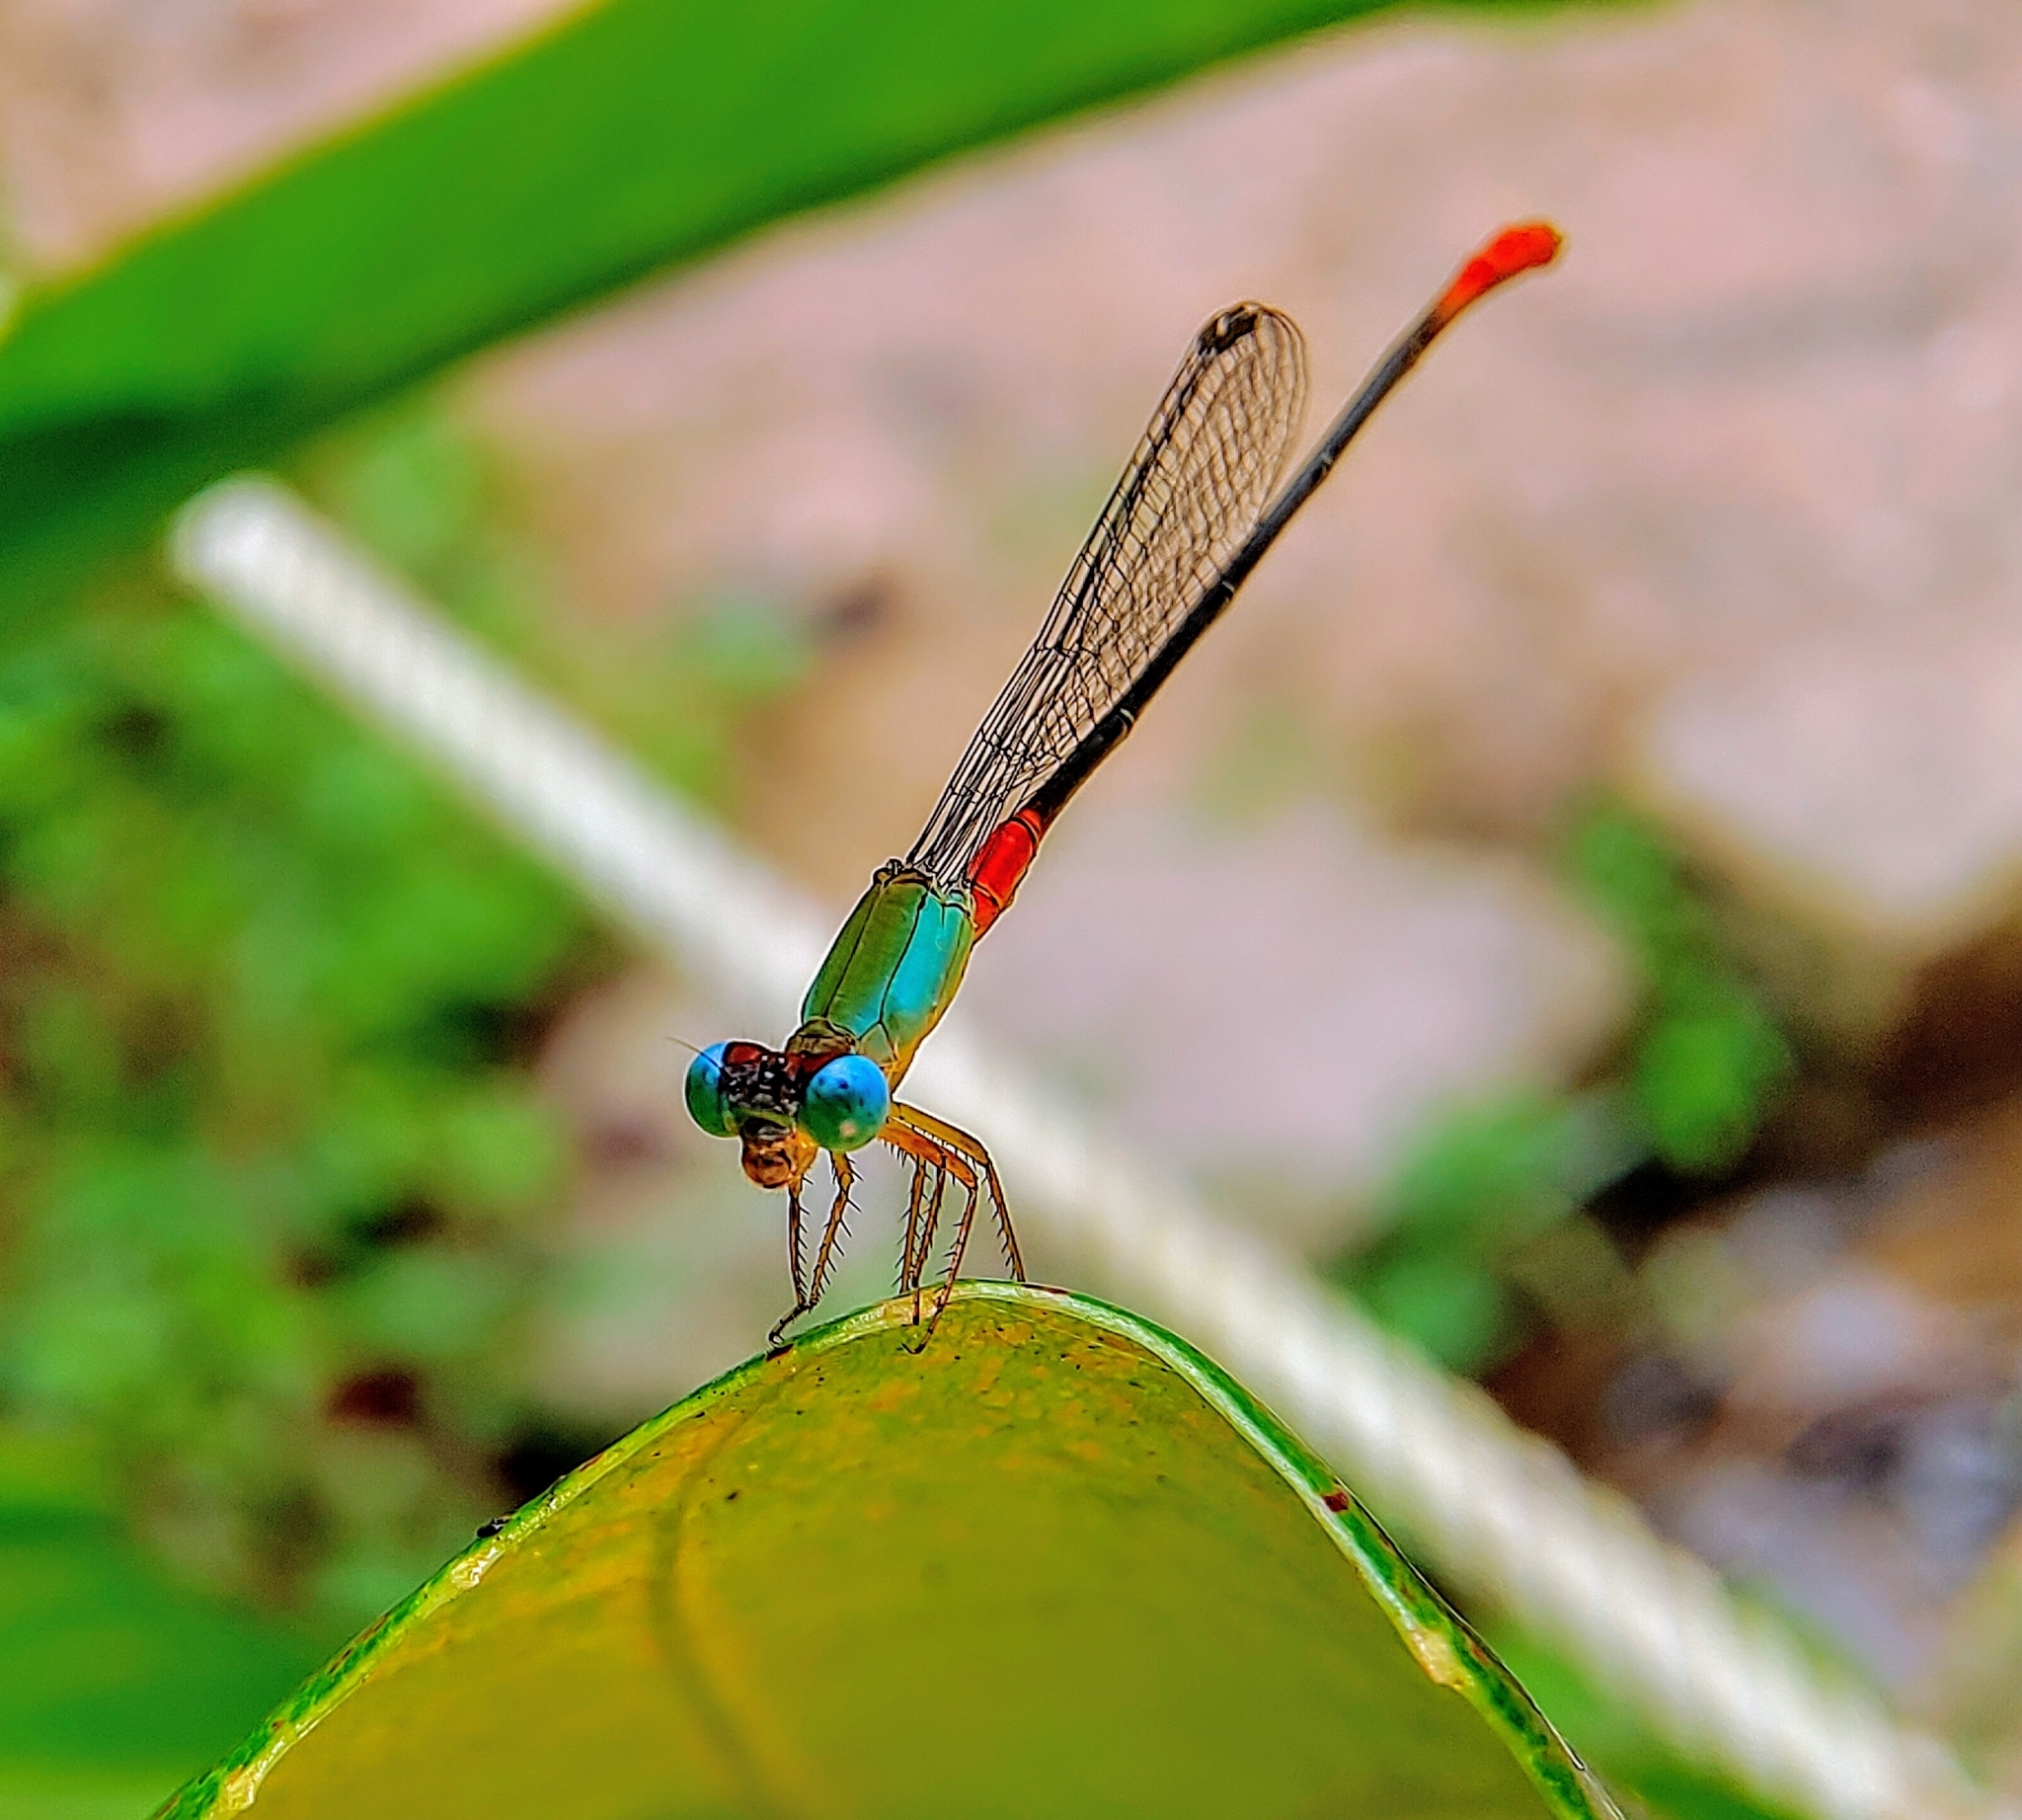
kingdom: Animalia
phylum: Arthropoda
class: Insecta
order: Odonata
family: Coenagrionidae
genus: Ceriagrion
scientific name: Ceriagrion cerinorubellum
